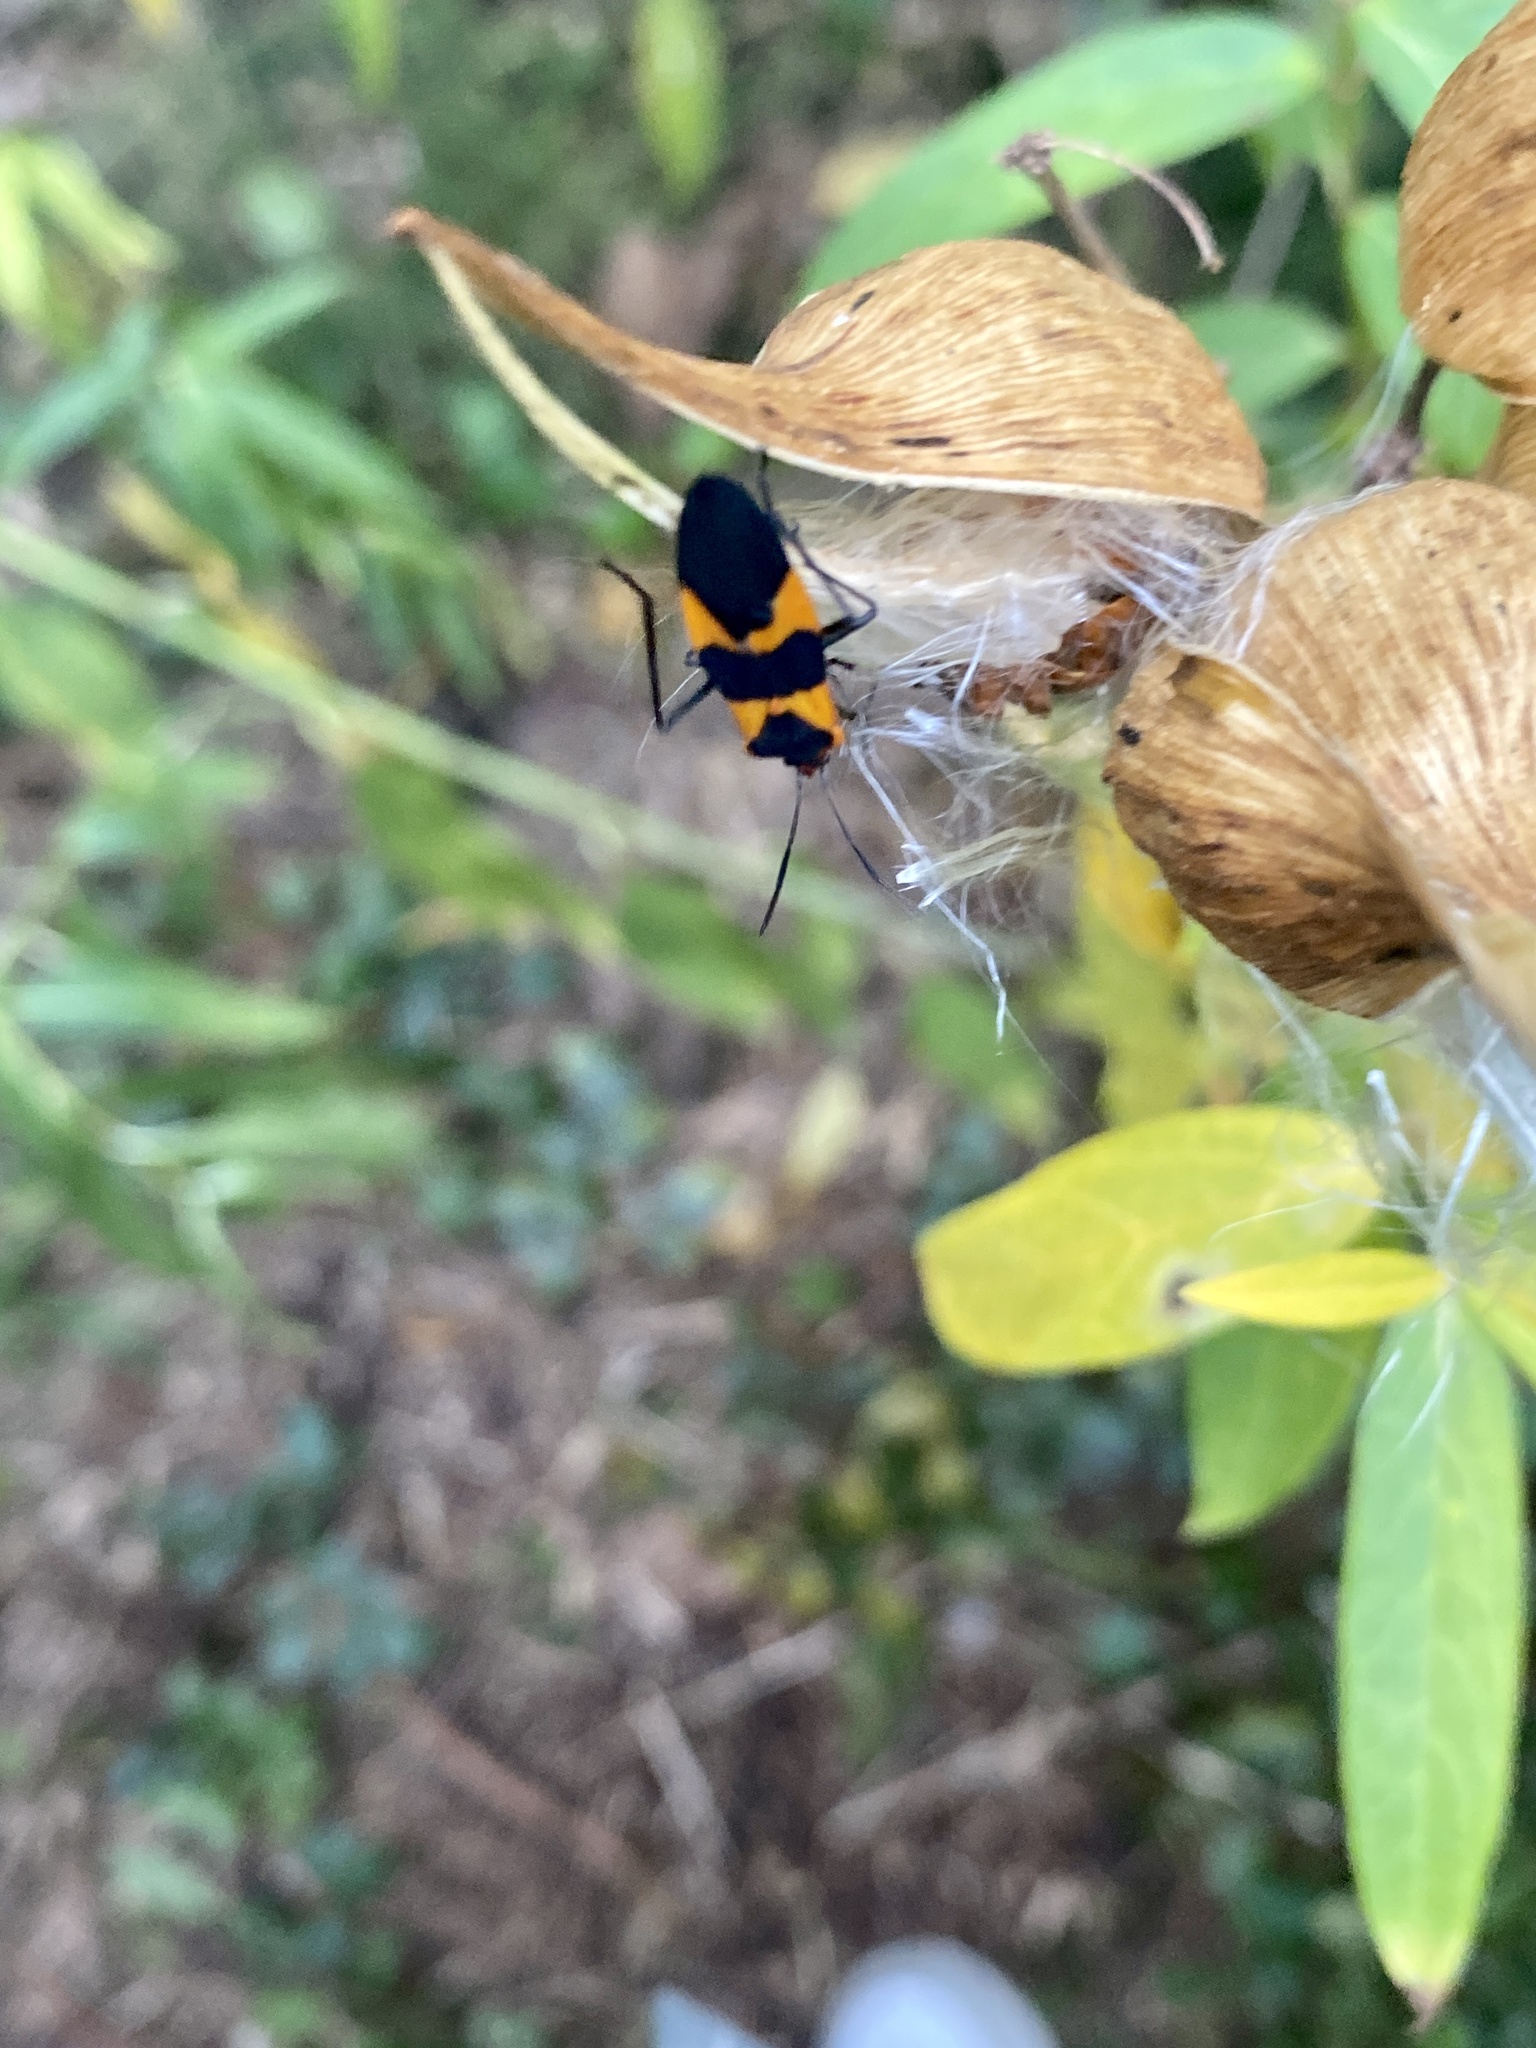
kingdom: Animalia
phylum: Arthropoda
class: Insecta
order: Hemiptera
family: Lygaeidae
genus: Oncopeltus
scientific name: Oncopeltus fasciatus
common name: Large milkweed bug
